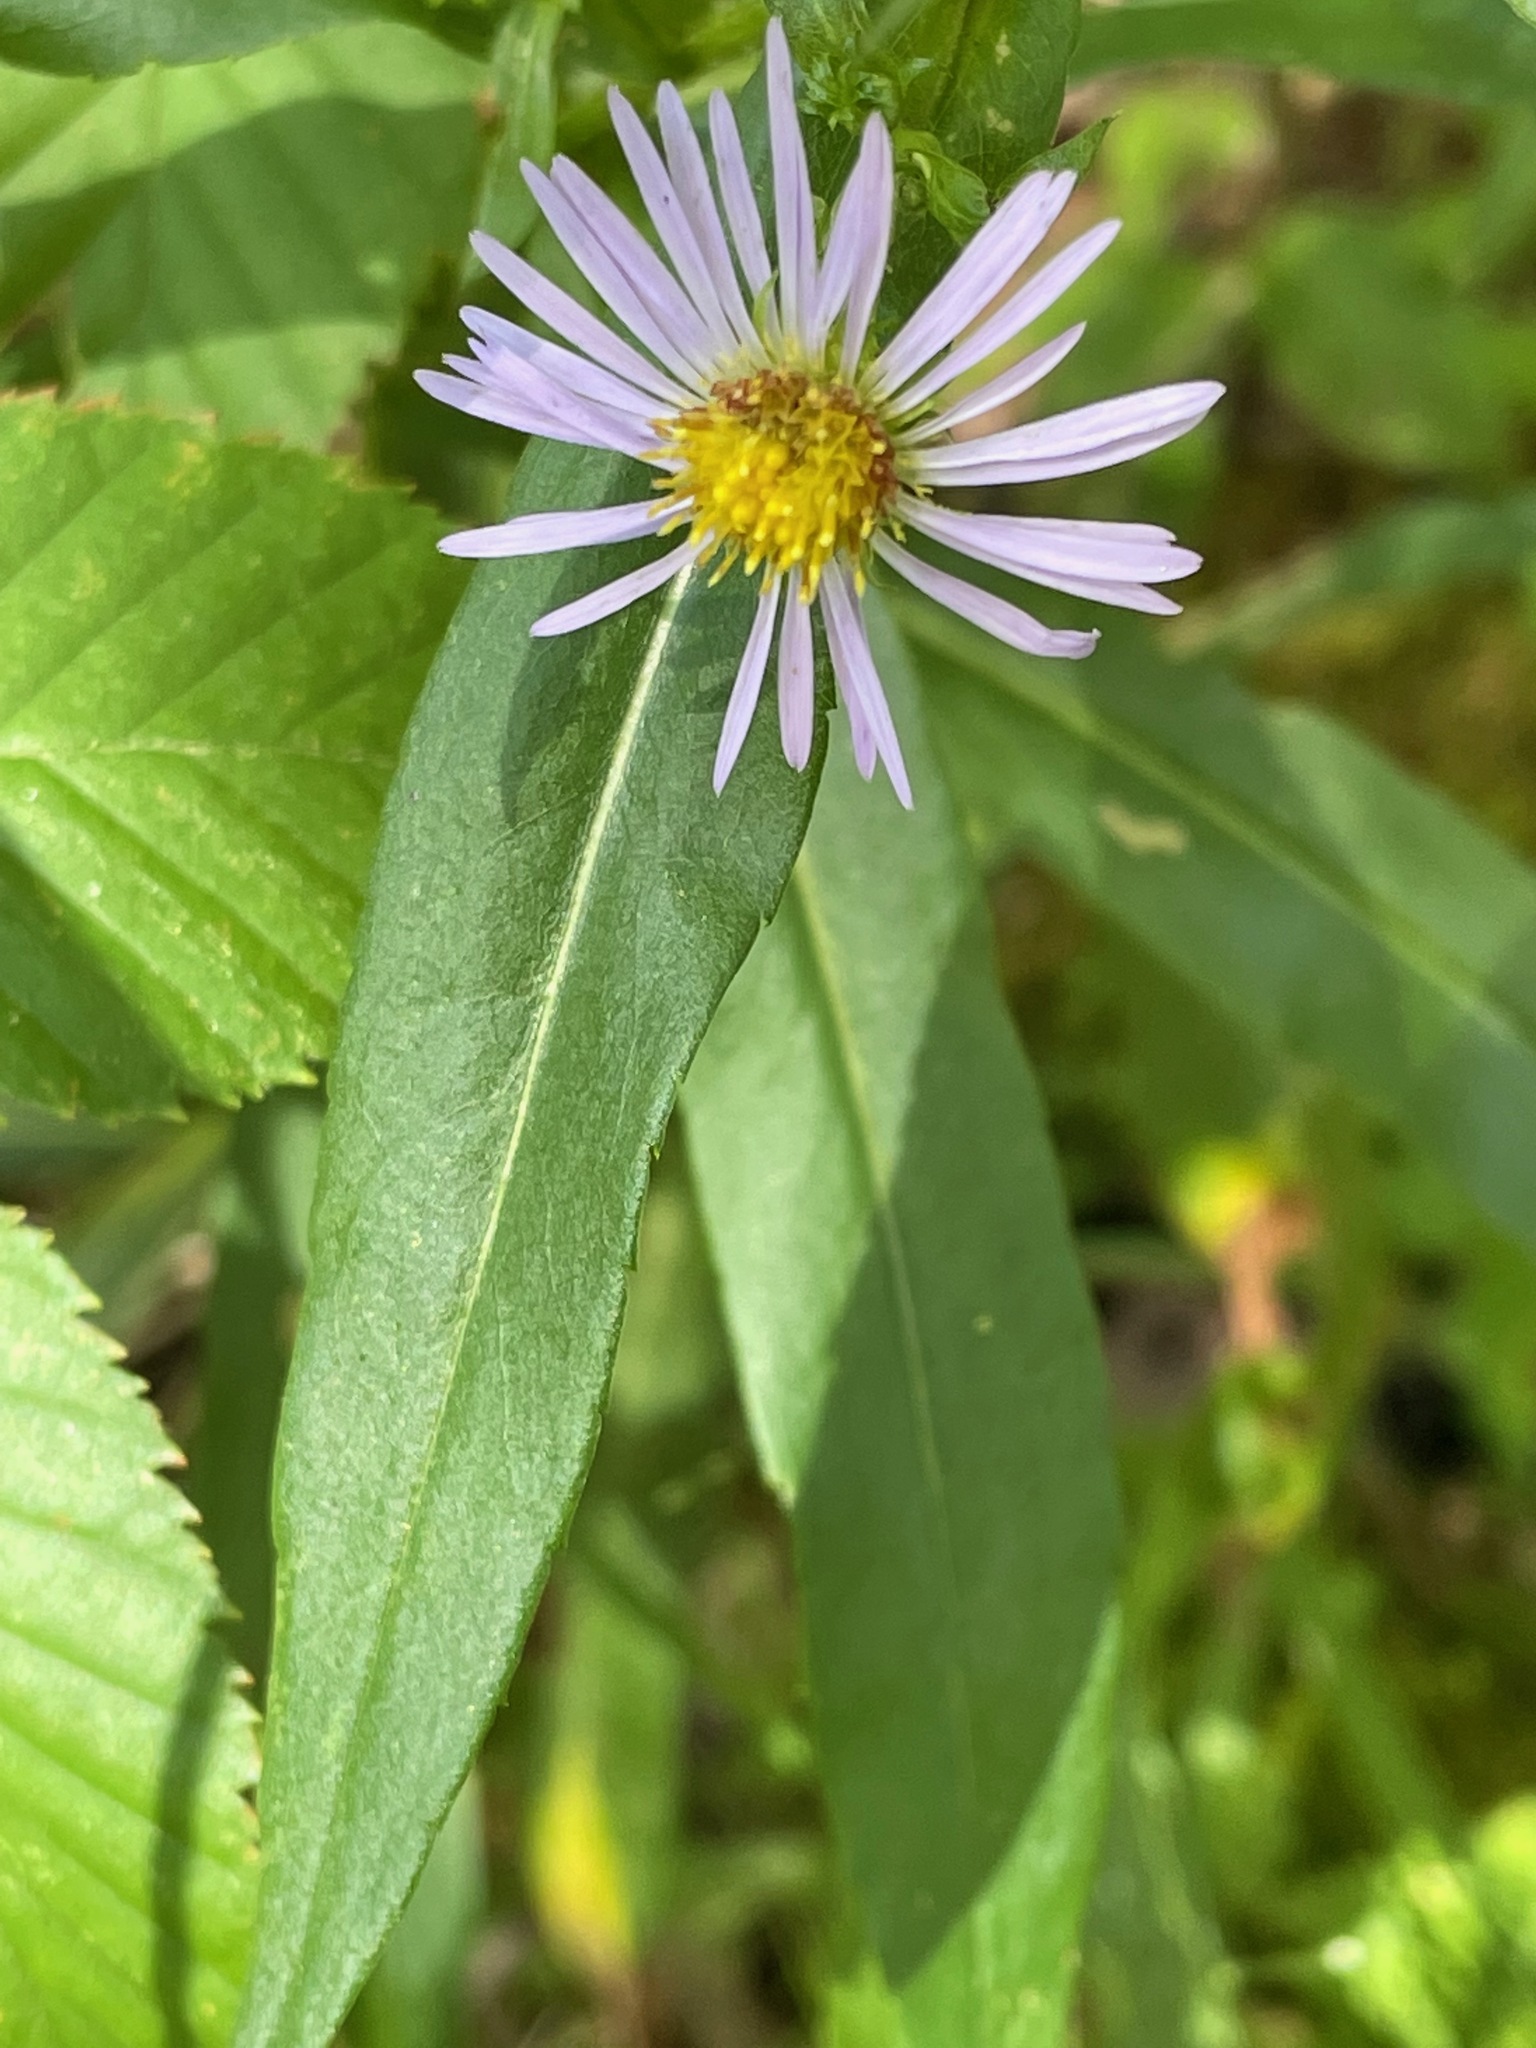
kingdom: Plantae
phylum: Tracheophyta
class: Magnoliopsida
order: Asterales
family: Asteraceae
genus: Symphyotrichum
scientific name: Symphyotrichum puniceum
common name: Bog aster
